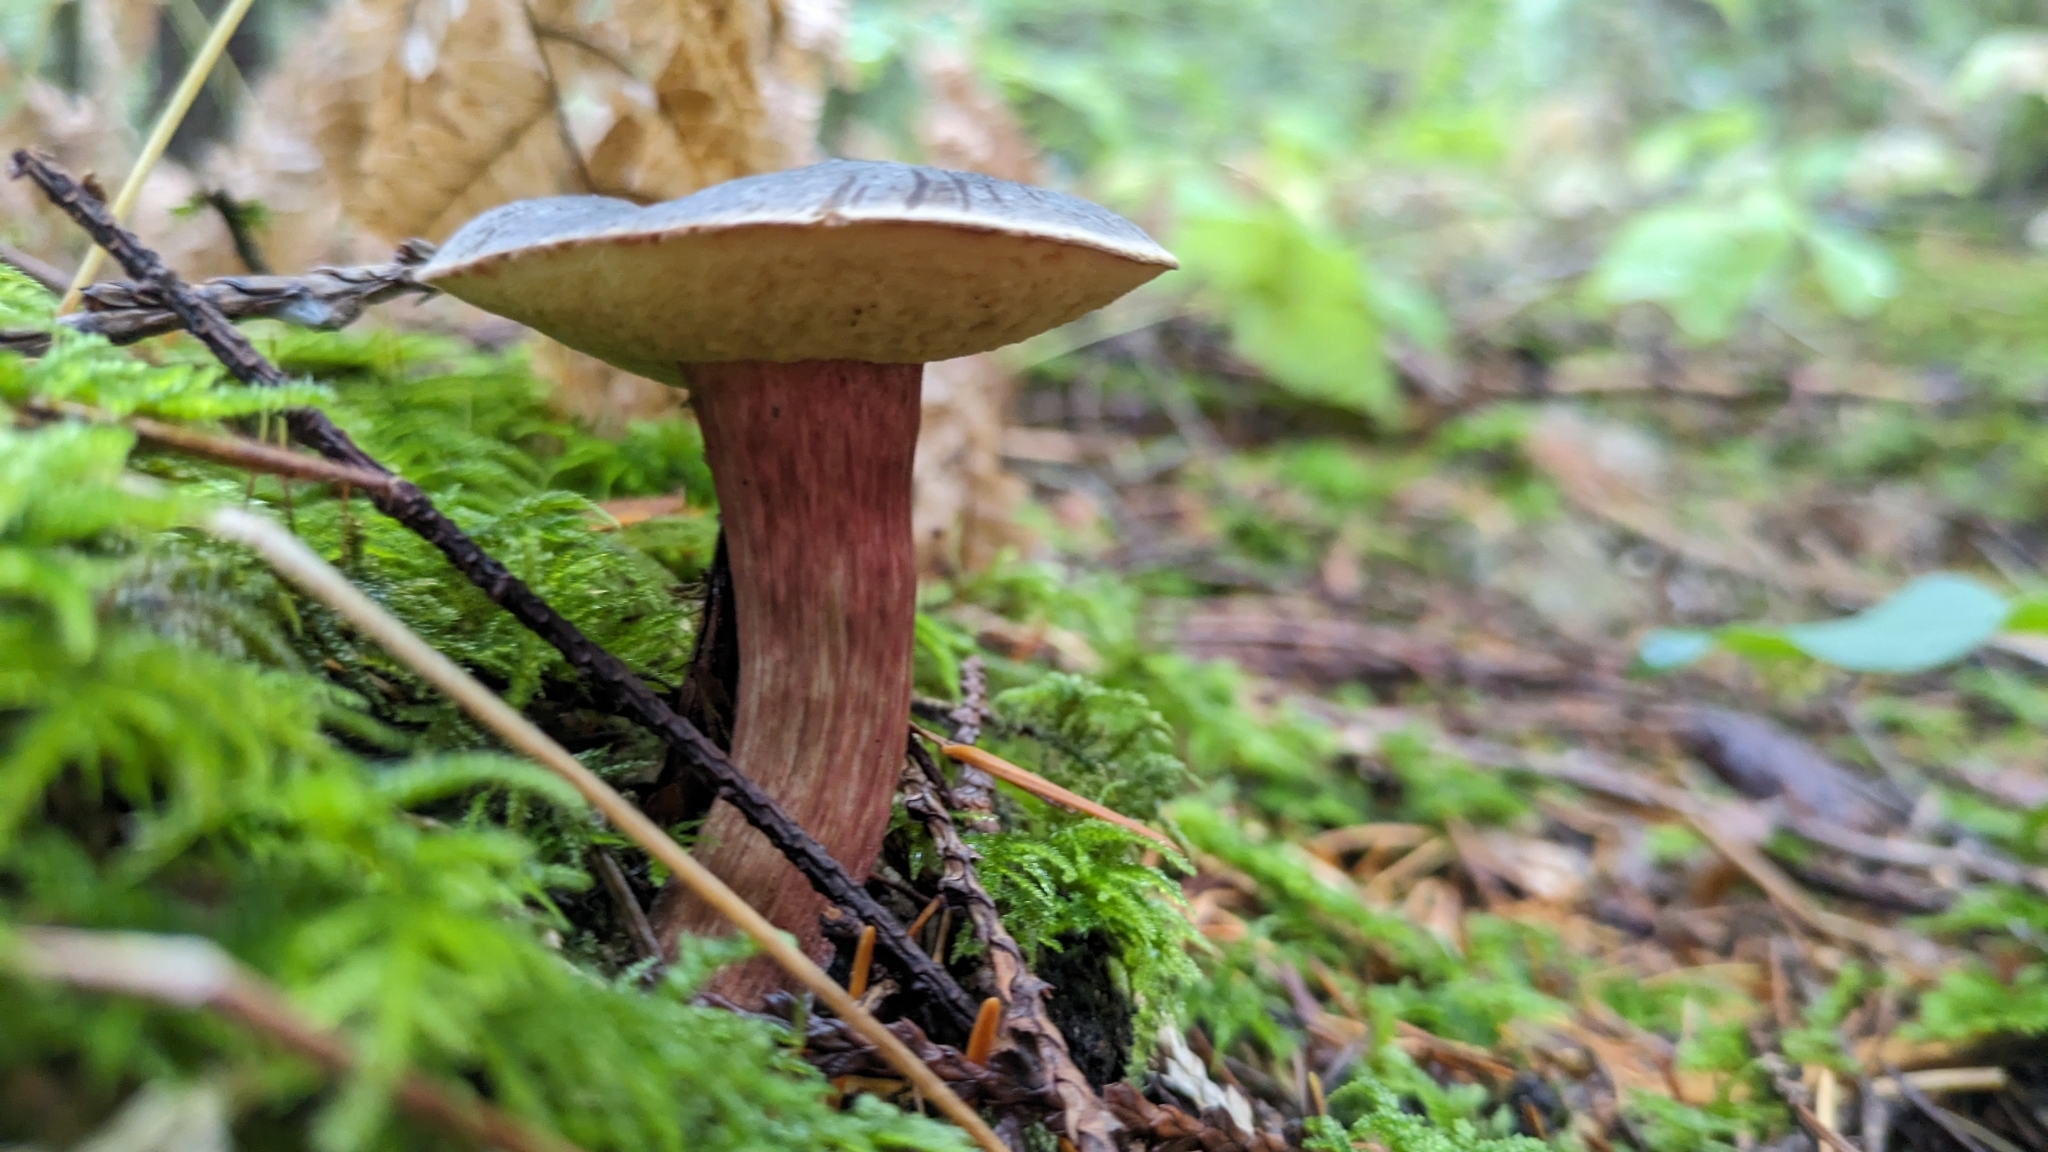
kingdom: Fungi
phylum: Basidiomycota
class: Agaricomycetes
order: Boletales
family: Boletaceae
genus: Xerocomellus
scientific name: Xerocomellus zelleri
